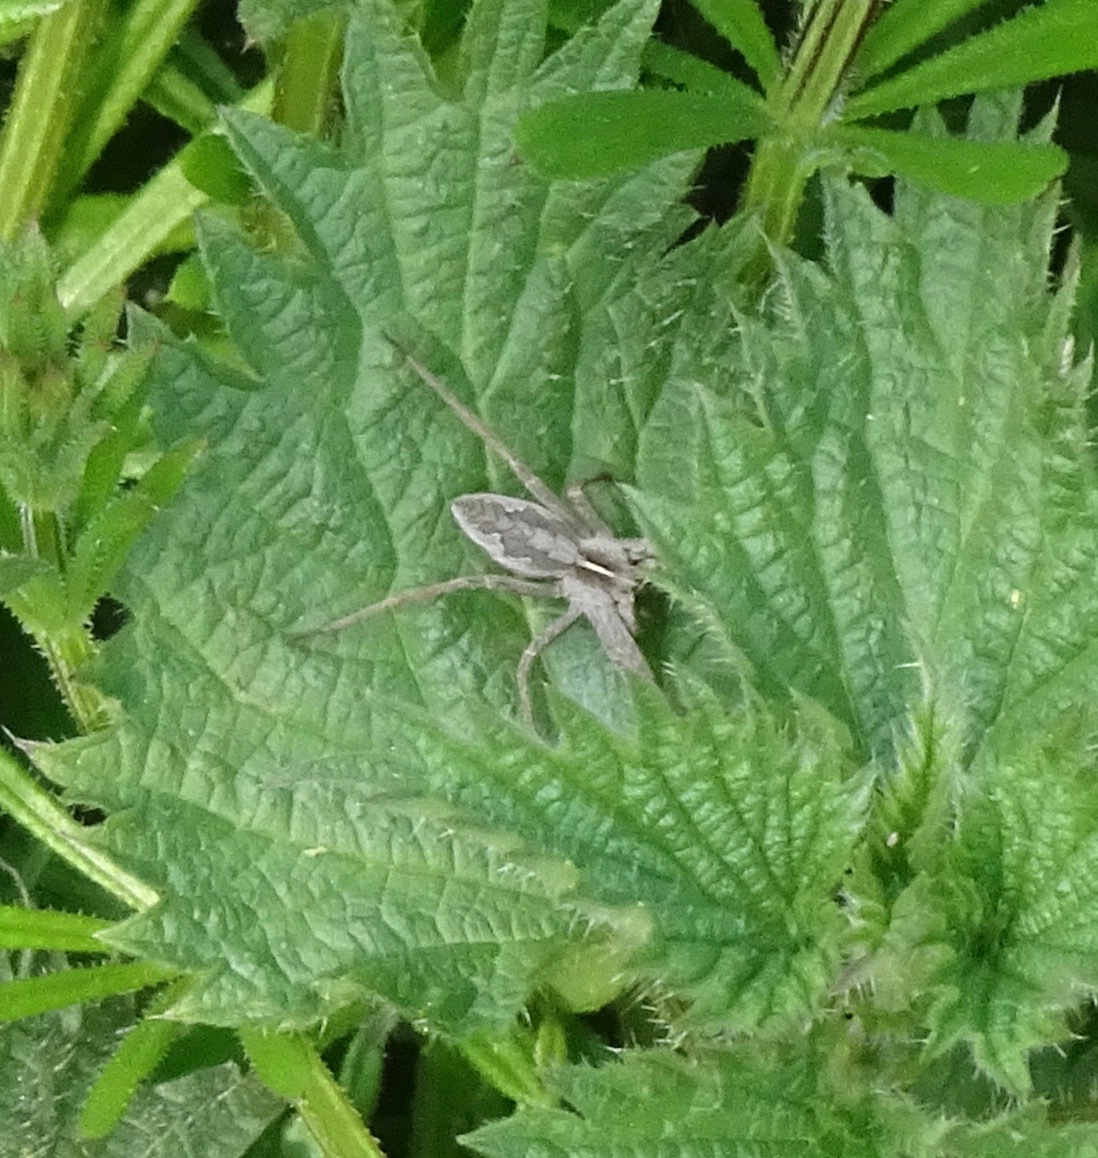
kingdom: Animalia
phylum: Arthropoda
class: Arachnida
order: Araneae
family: Pisauridae
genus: Pisaura
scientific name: Pisaura mirabilis
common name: Tent spider
